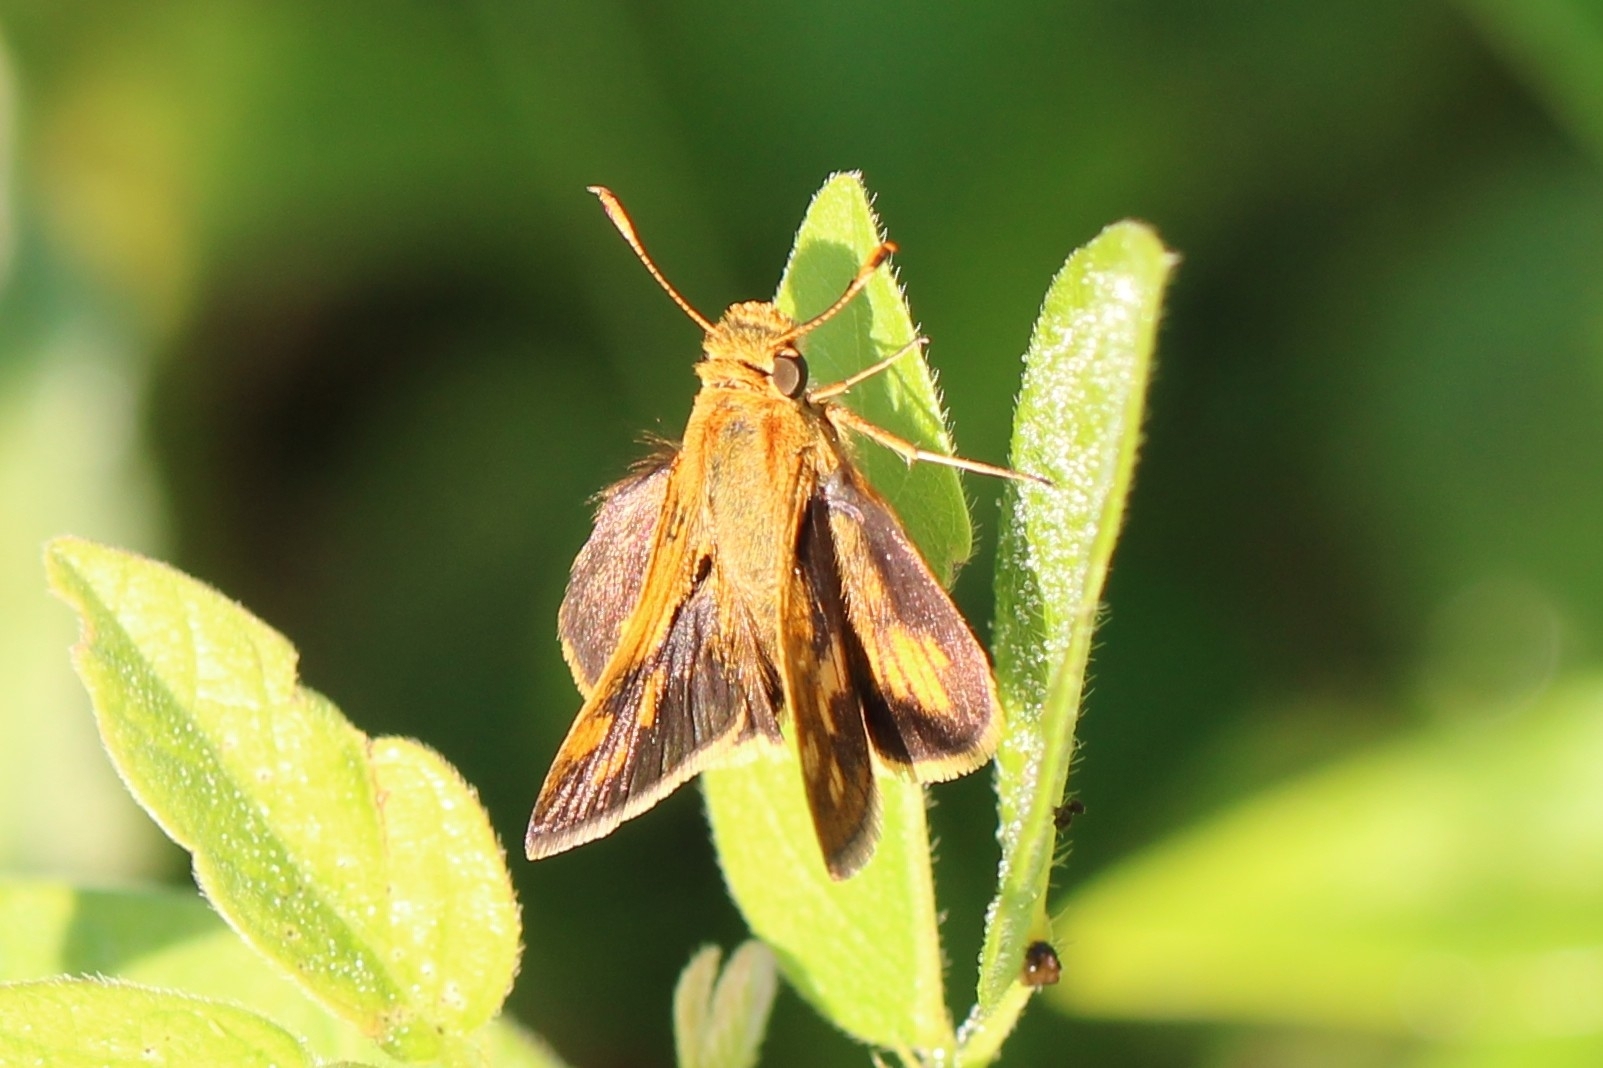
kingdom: Animalia
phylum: Arthropoda
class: Insecta
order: Lepidoptera
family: Hesperiidae
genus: Polites
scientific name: Polites coras
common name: Peck's skipper
